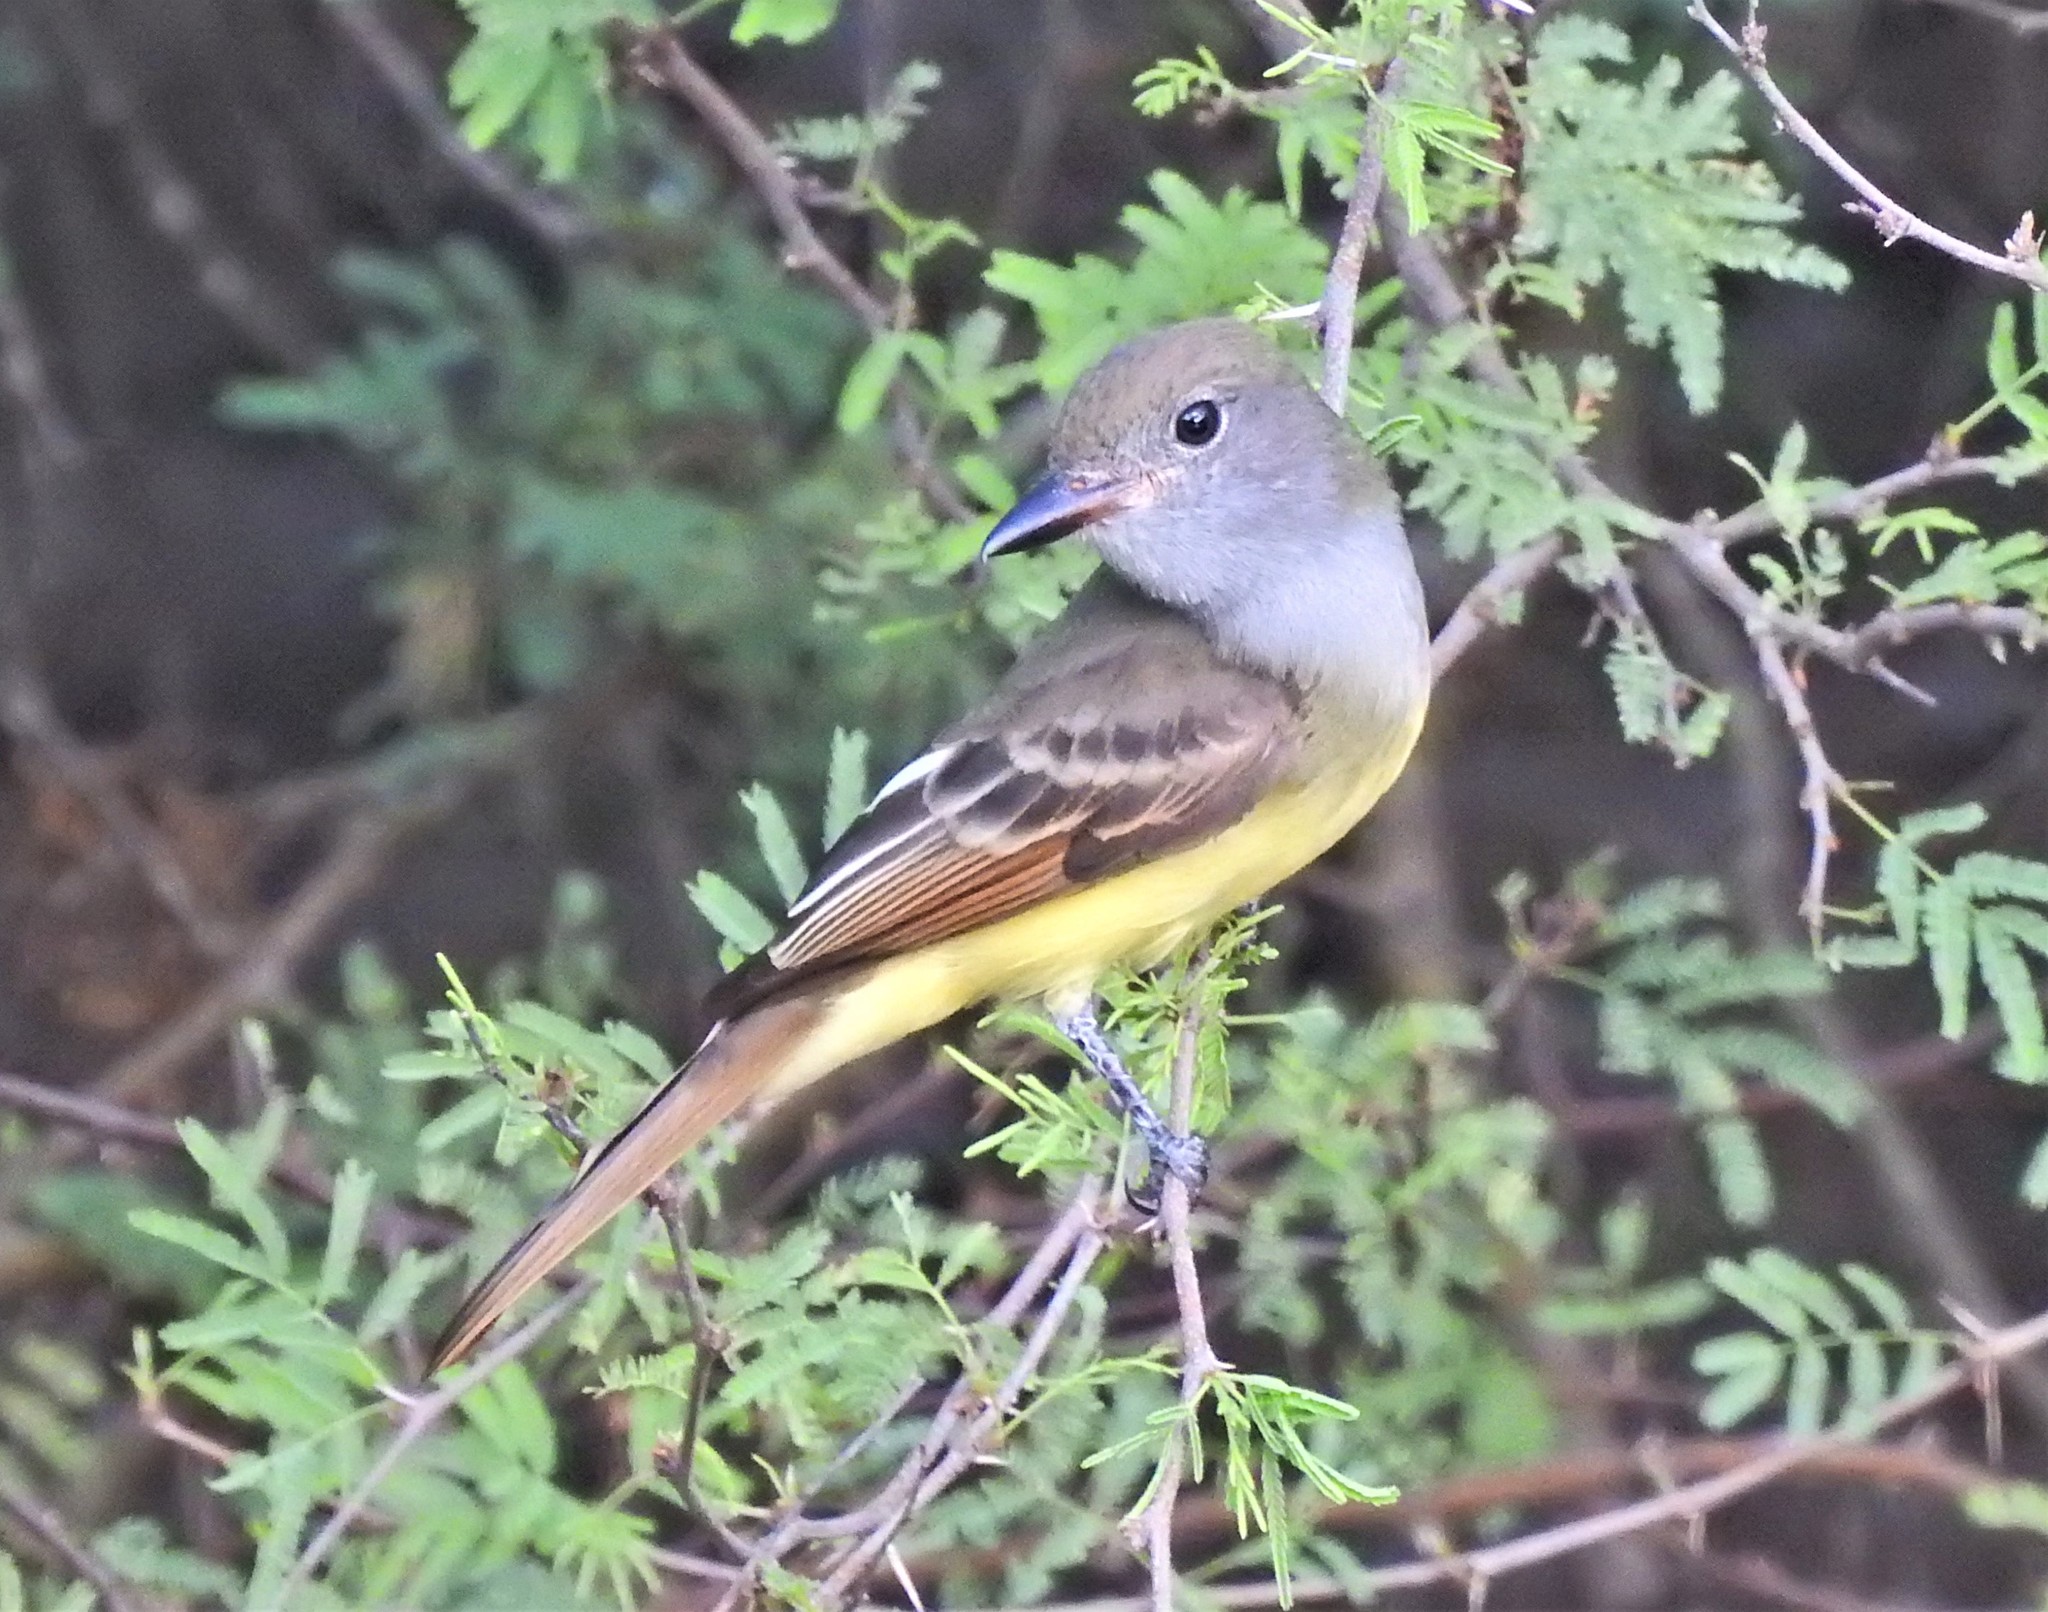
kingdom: Animalia
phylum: Chordata
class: Aves
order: Passeriformes
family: Tyrannidae
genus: Myiarchus
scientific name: Myiarchus crinitus
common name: Great crested flycatcher
